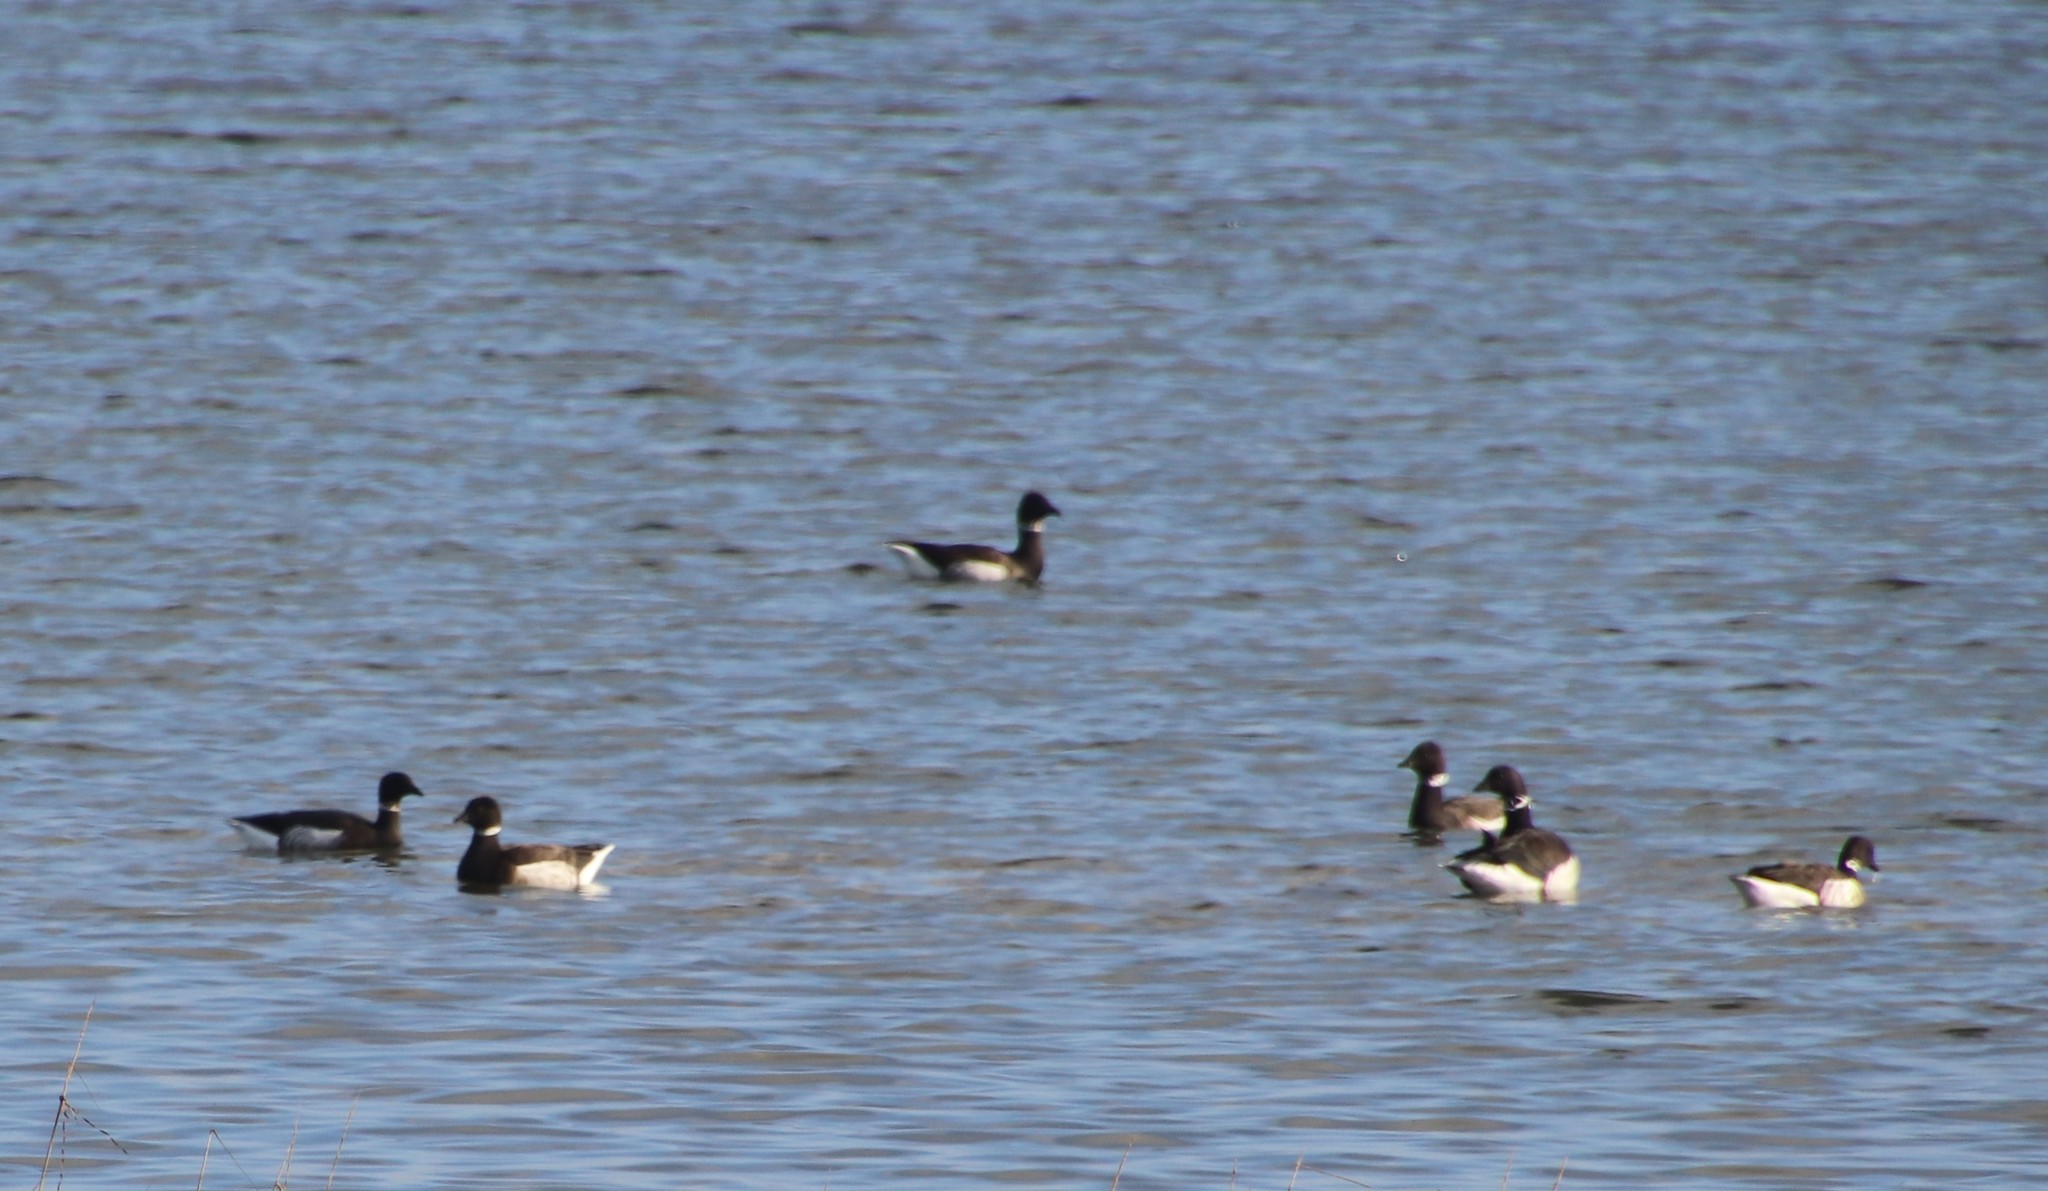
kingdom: Animalia
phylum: Chordata
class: Aves
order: Anseriformes
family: Anatidae
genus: Branta
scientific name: Branta bernicla
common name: Brant goose
